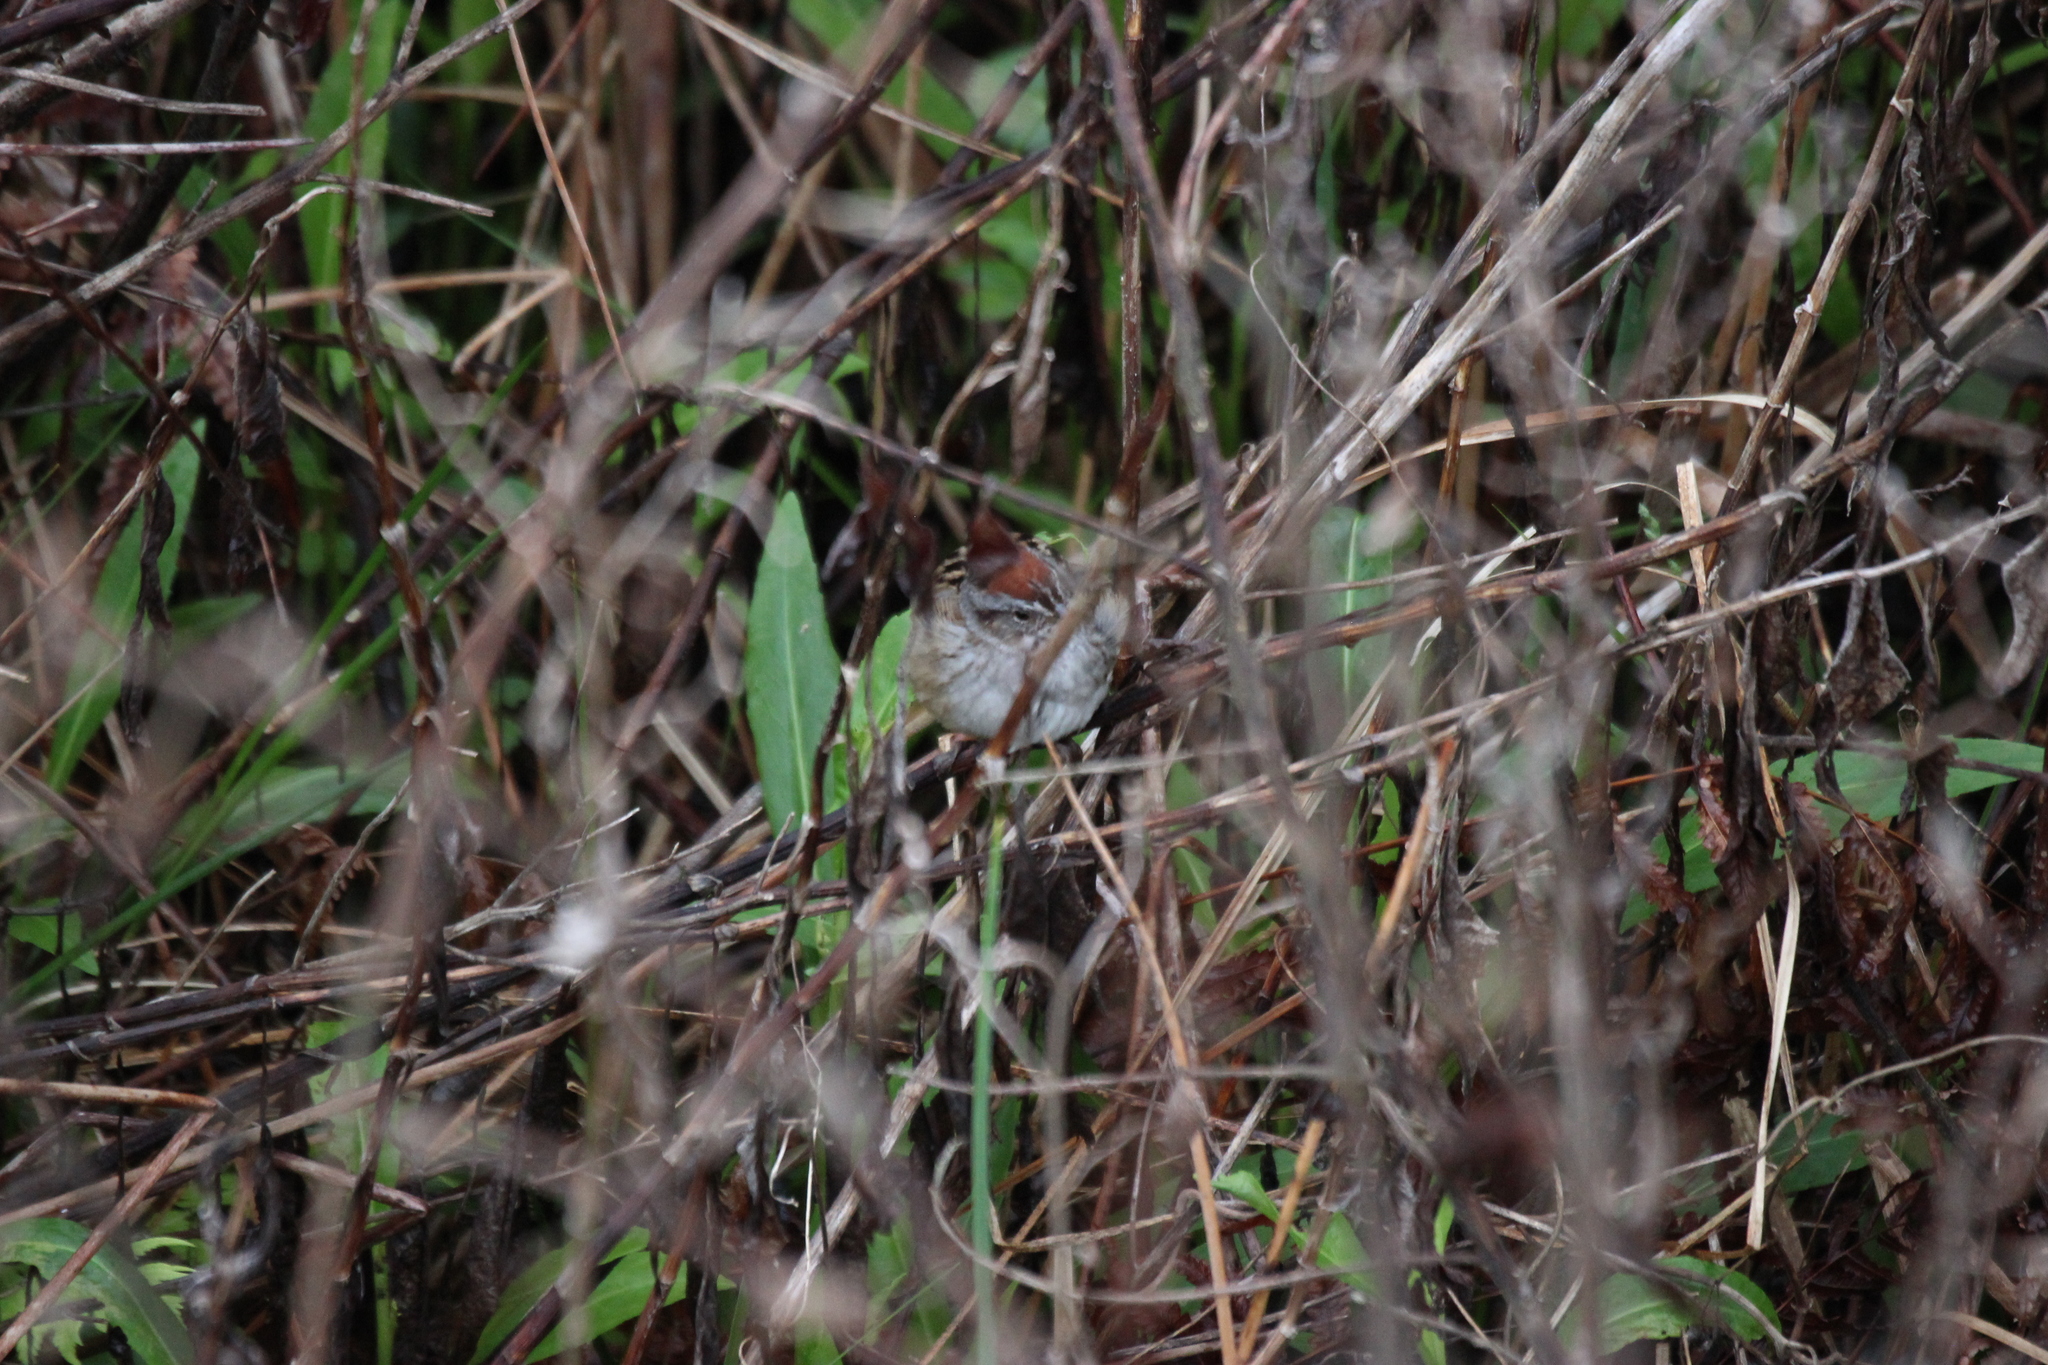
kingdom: Animalia
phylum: Chordata
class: Aves
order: Passeriformes
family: Passerellidae
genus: Melospiza
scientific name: Melospiza georgiana
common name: Swamp sparrow
